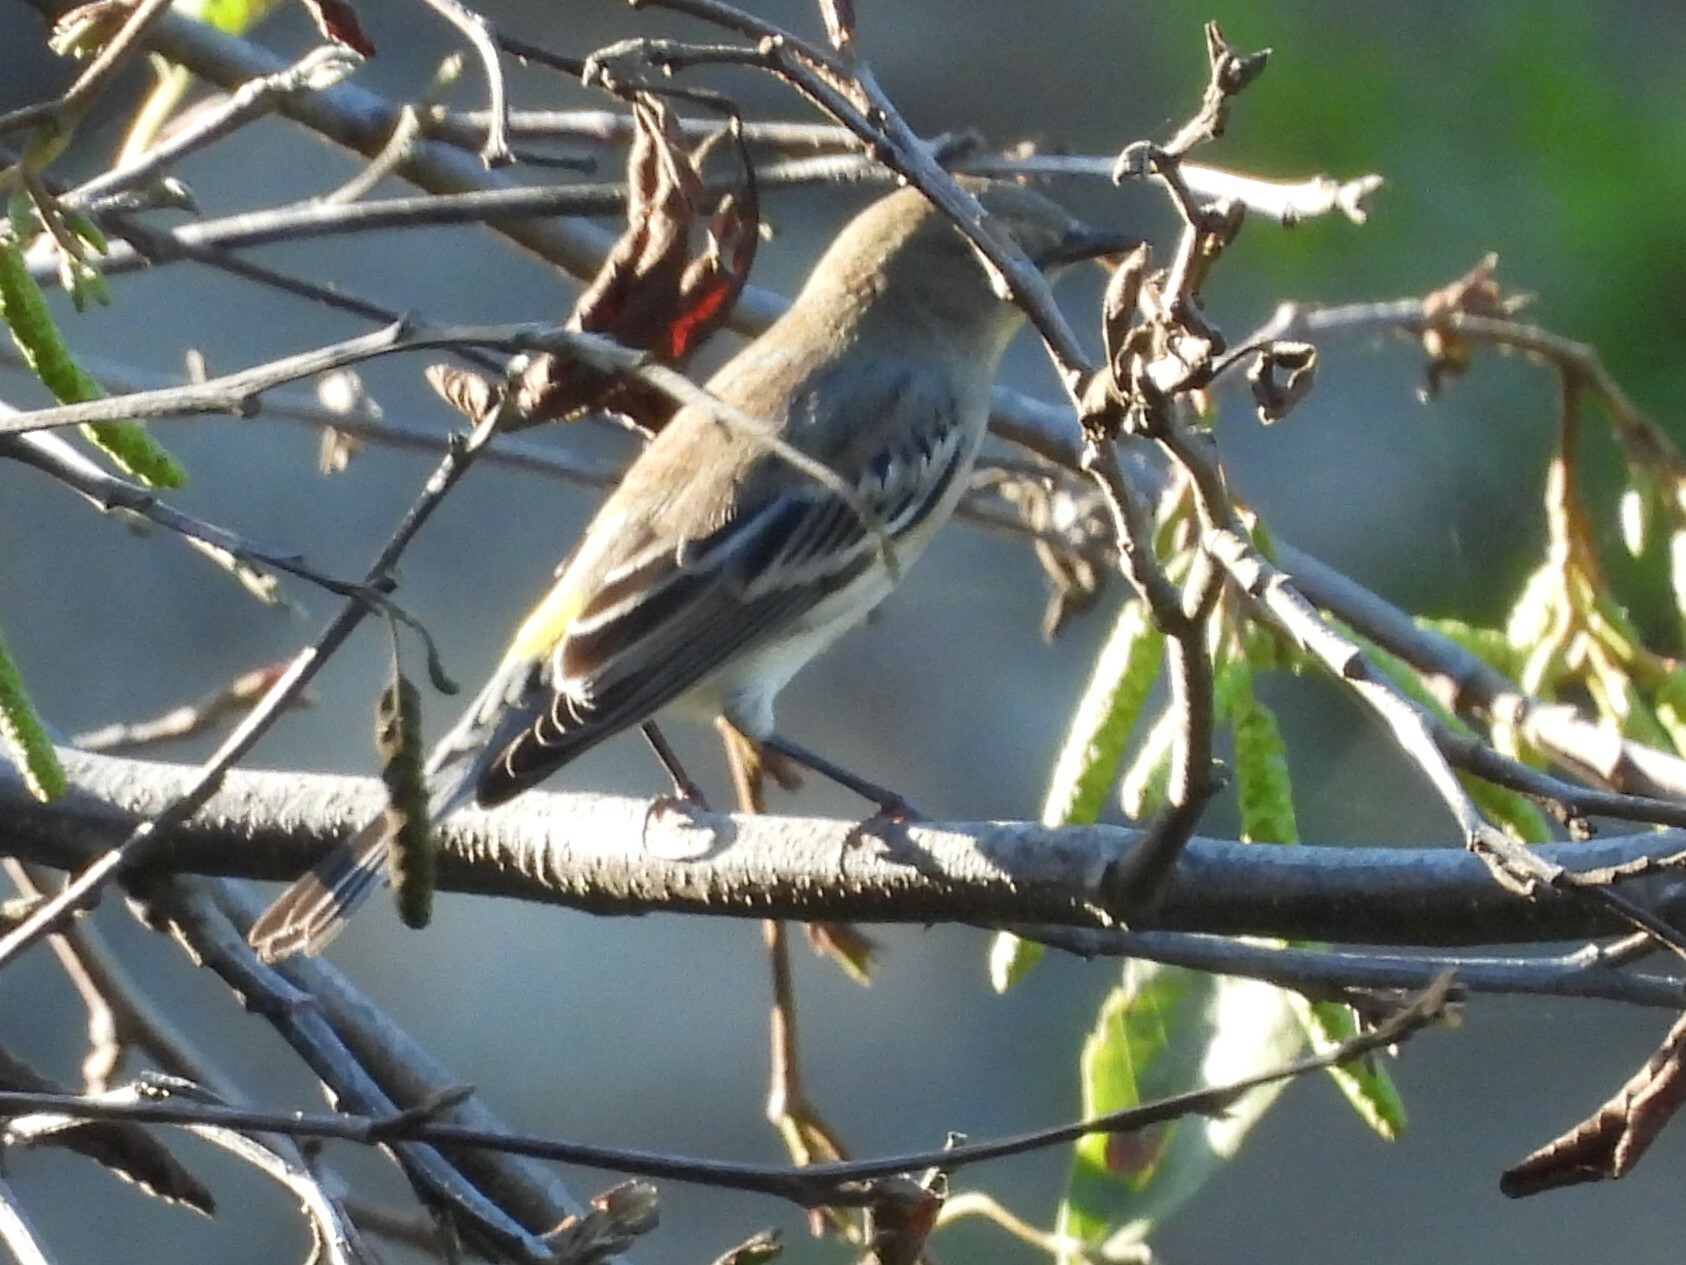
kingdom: Animalia
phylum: Chordata
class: Aves
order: Passeriformes
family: Parulidae
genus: Setophaga
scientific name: Setophaga coronata
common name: Myrtle warbler
